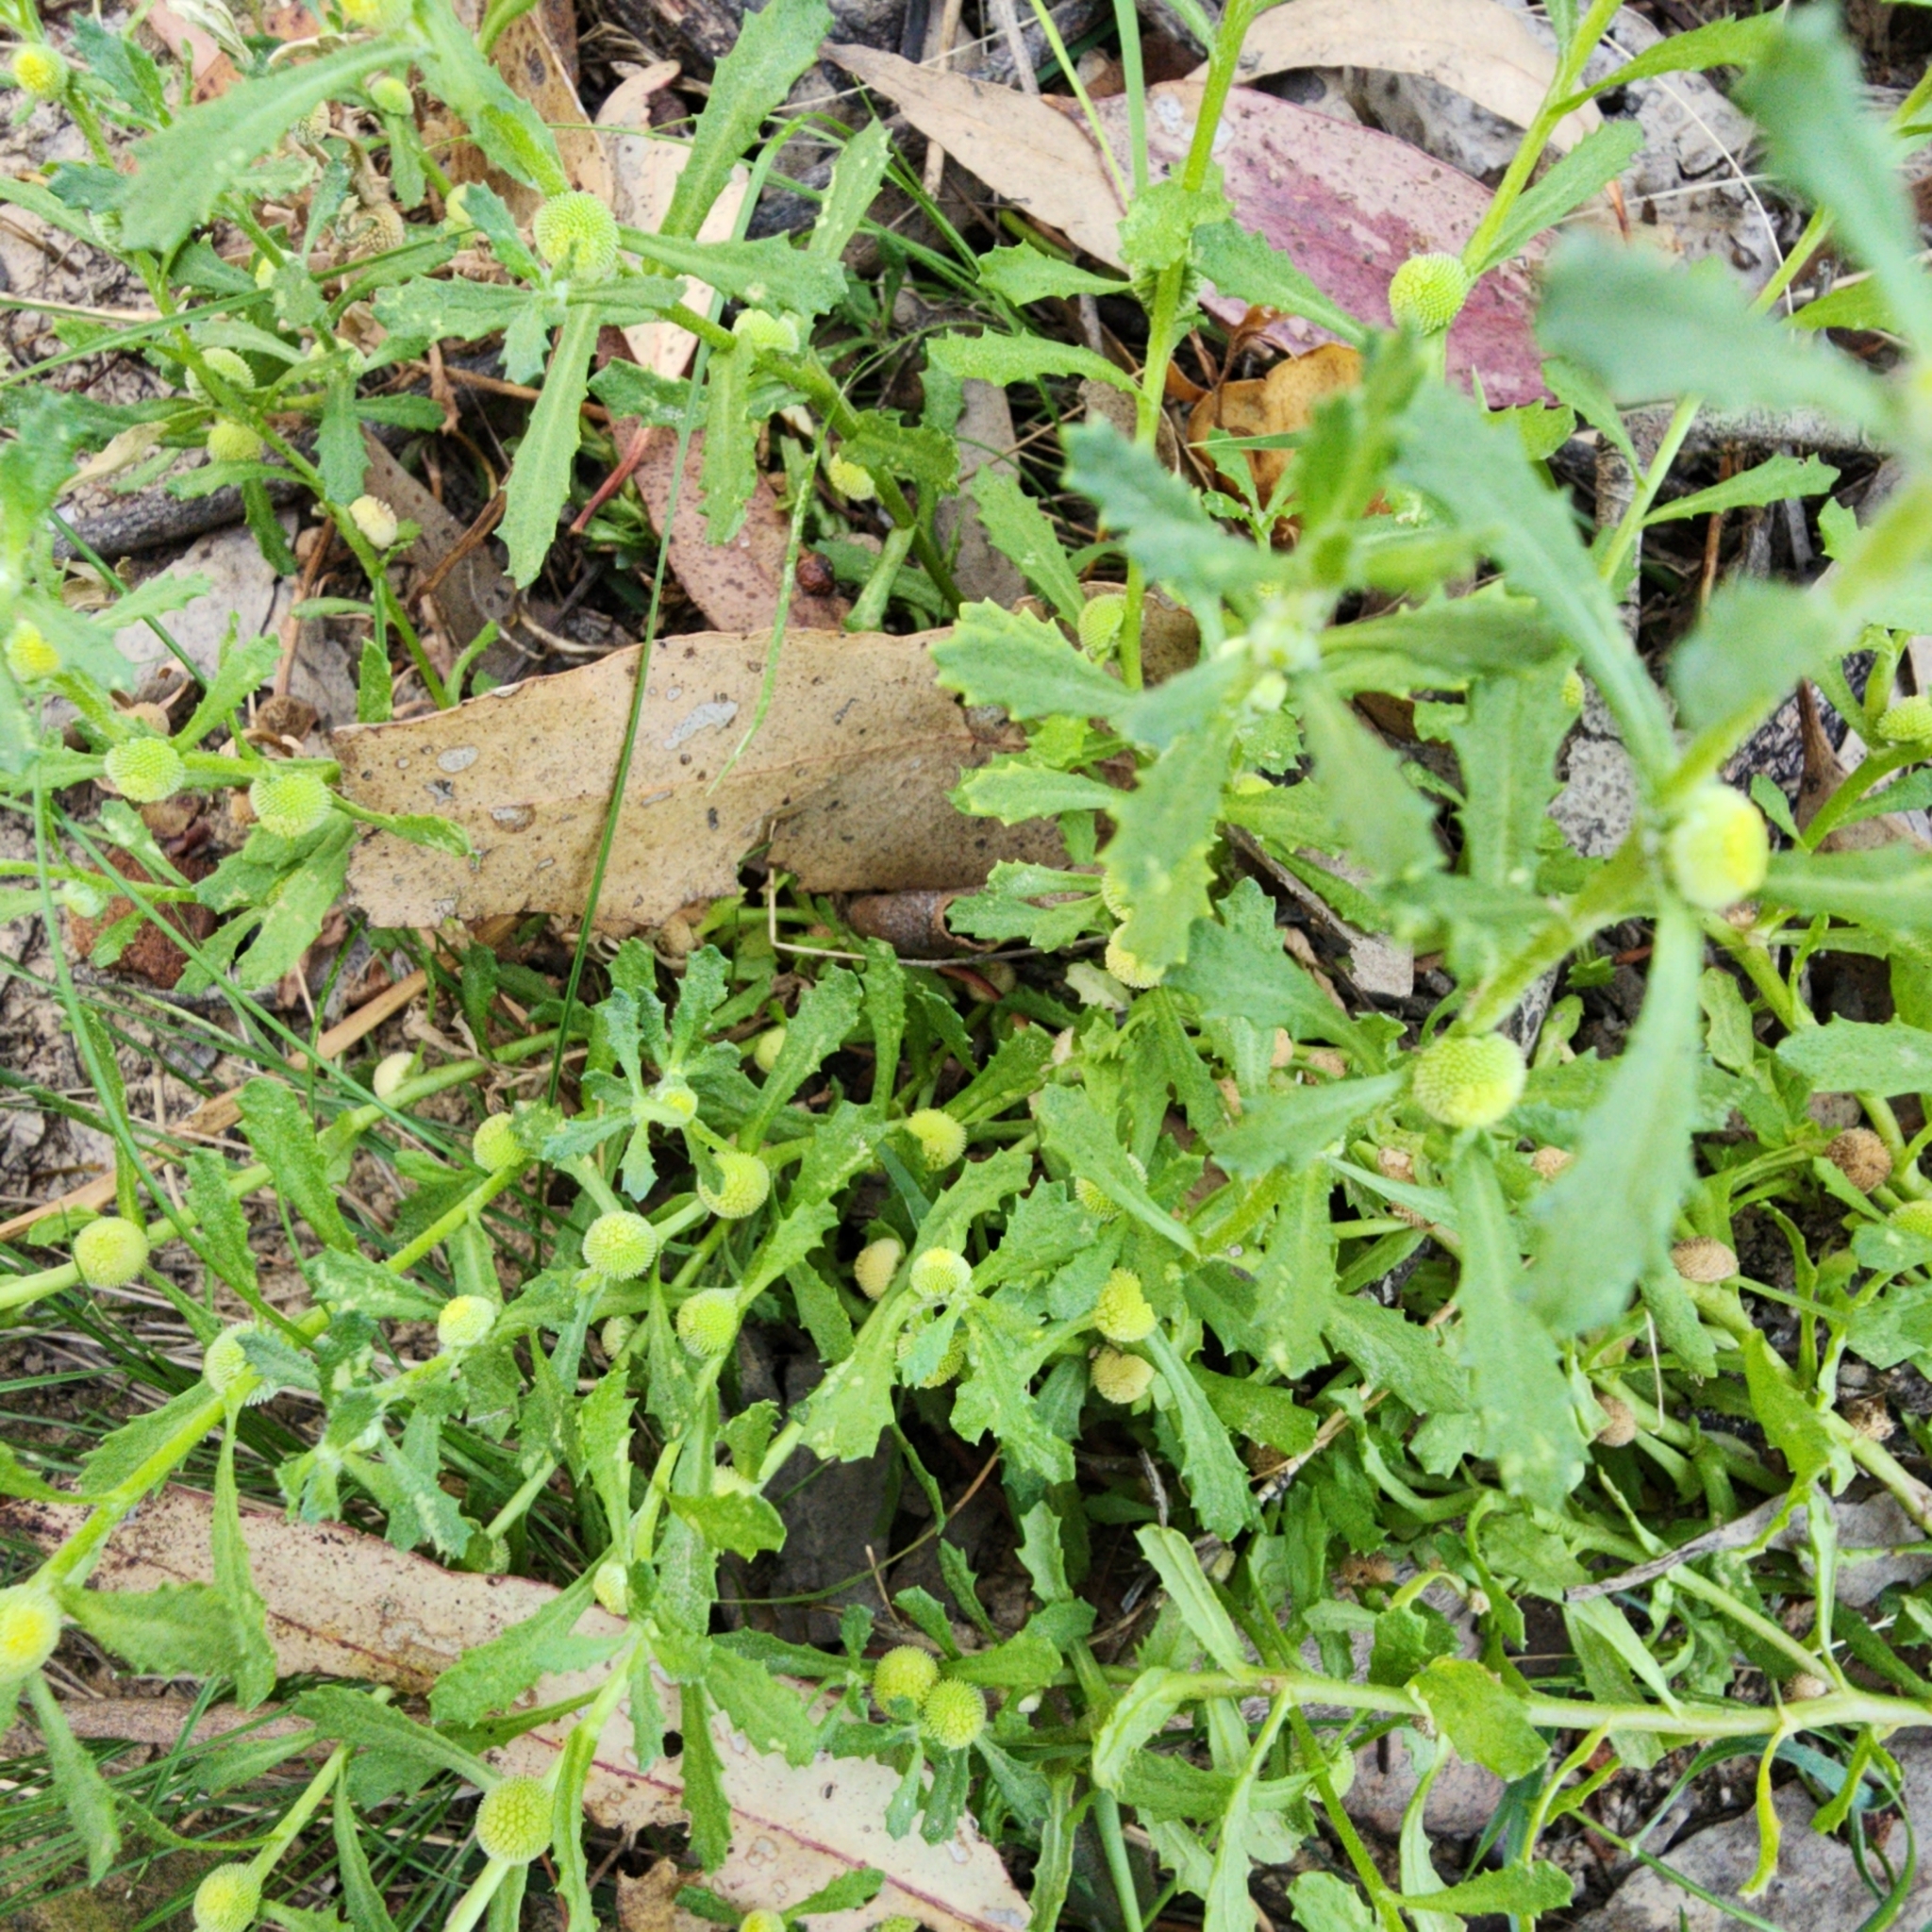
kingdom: Plantae
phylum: Tracheophyta
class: Magnoliopsida
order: Asterales
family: Asteraceae
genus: Centipeda
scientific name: Centipeda cunninghamii
